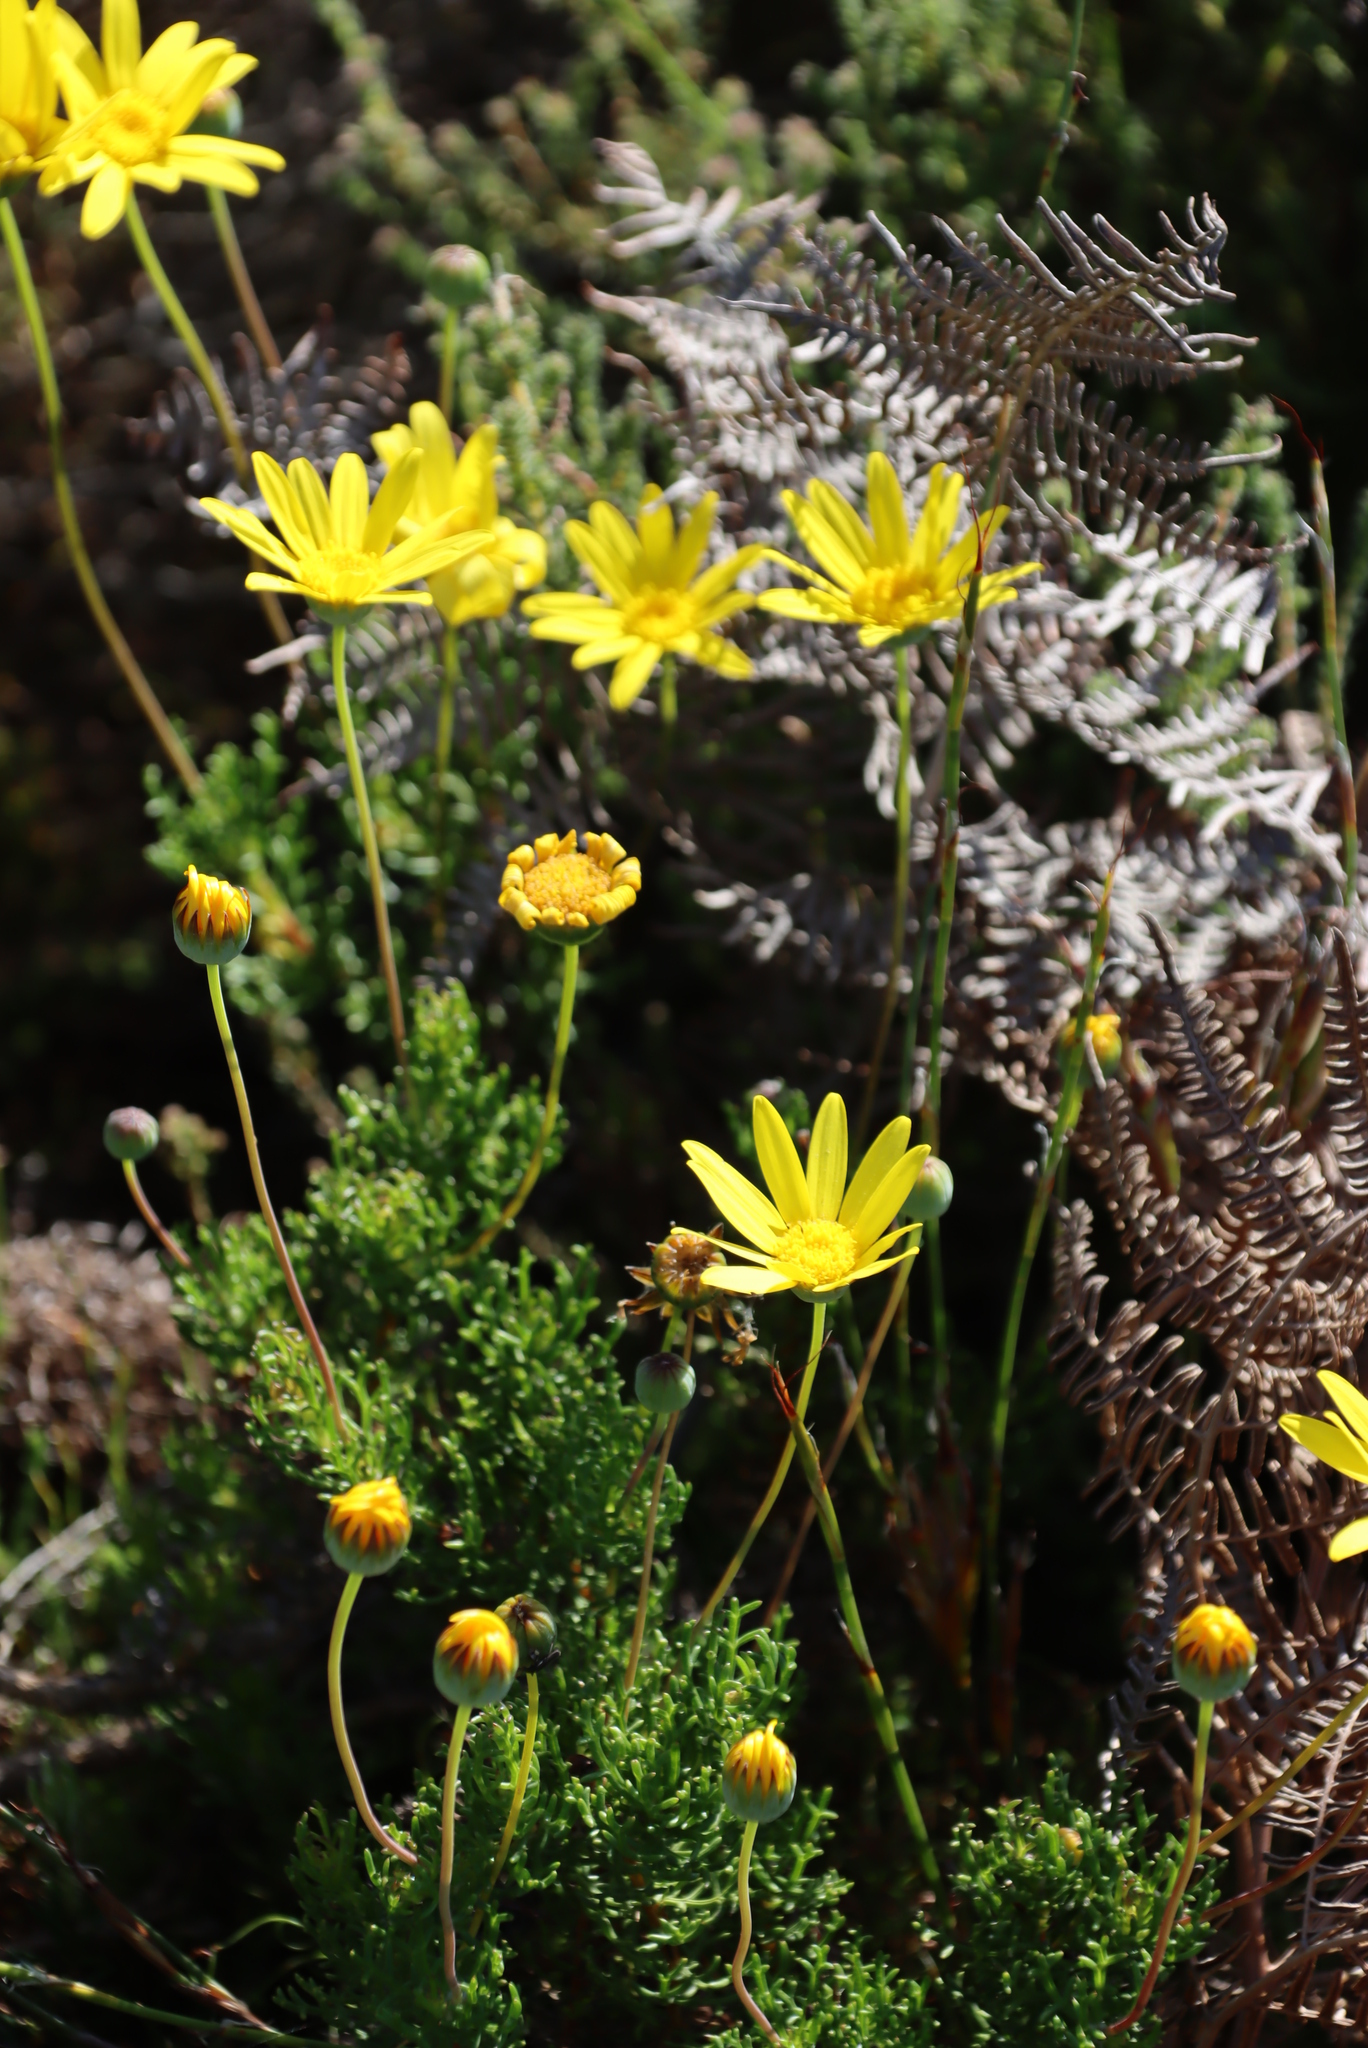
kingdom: Plantae
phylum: Tracheophyta
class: Magnoliopsida
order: Asterales
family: Asteraceae
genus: Euryops
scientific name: Euryops abrotanifolius
